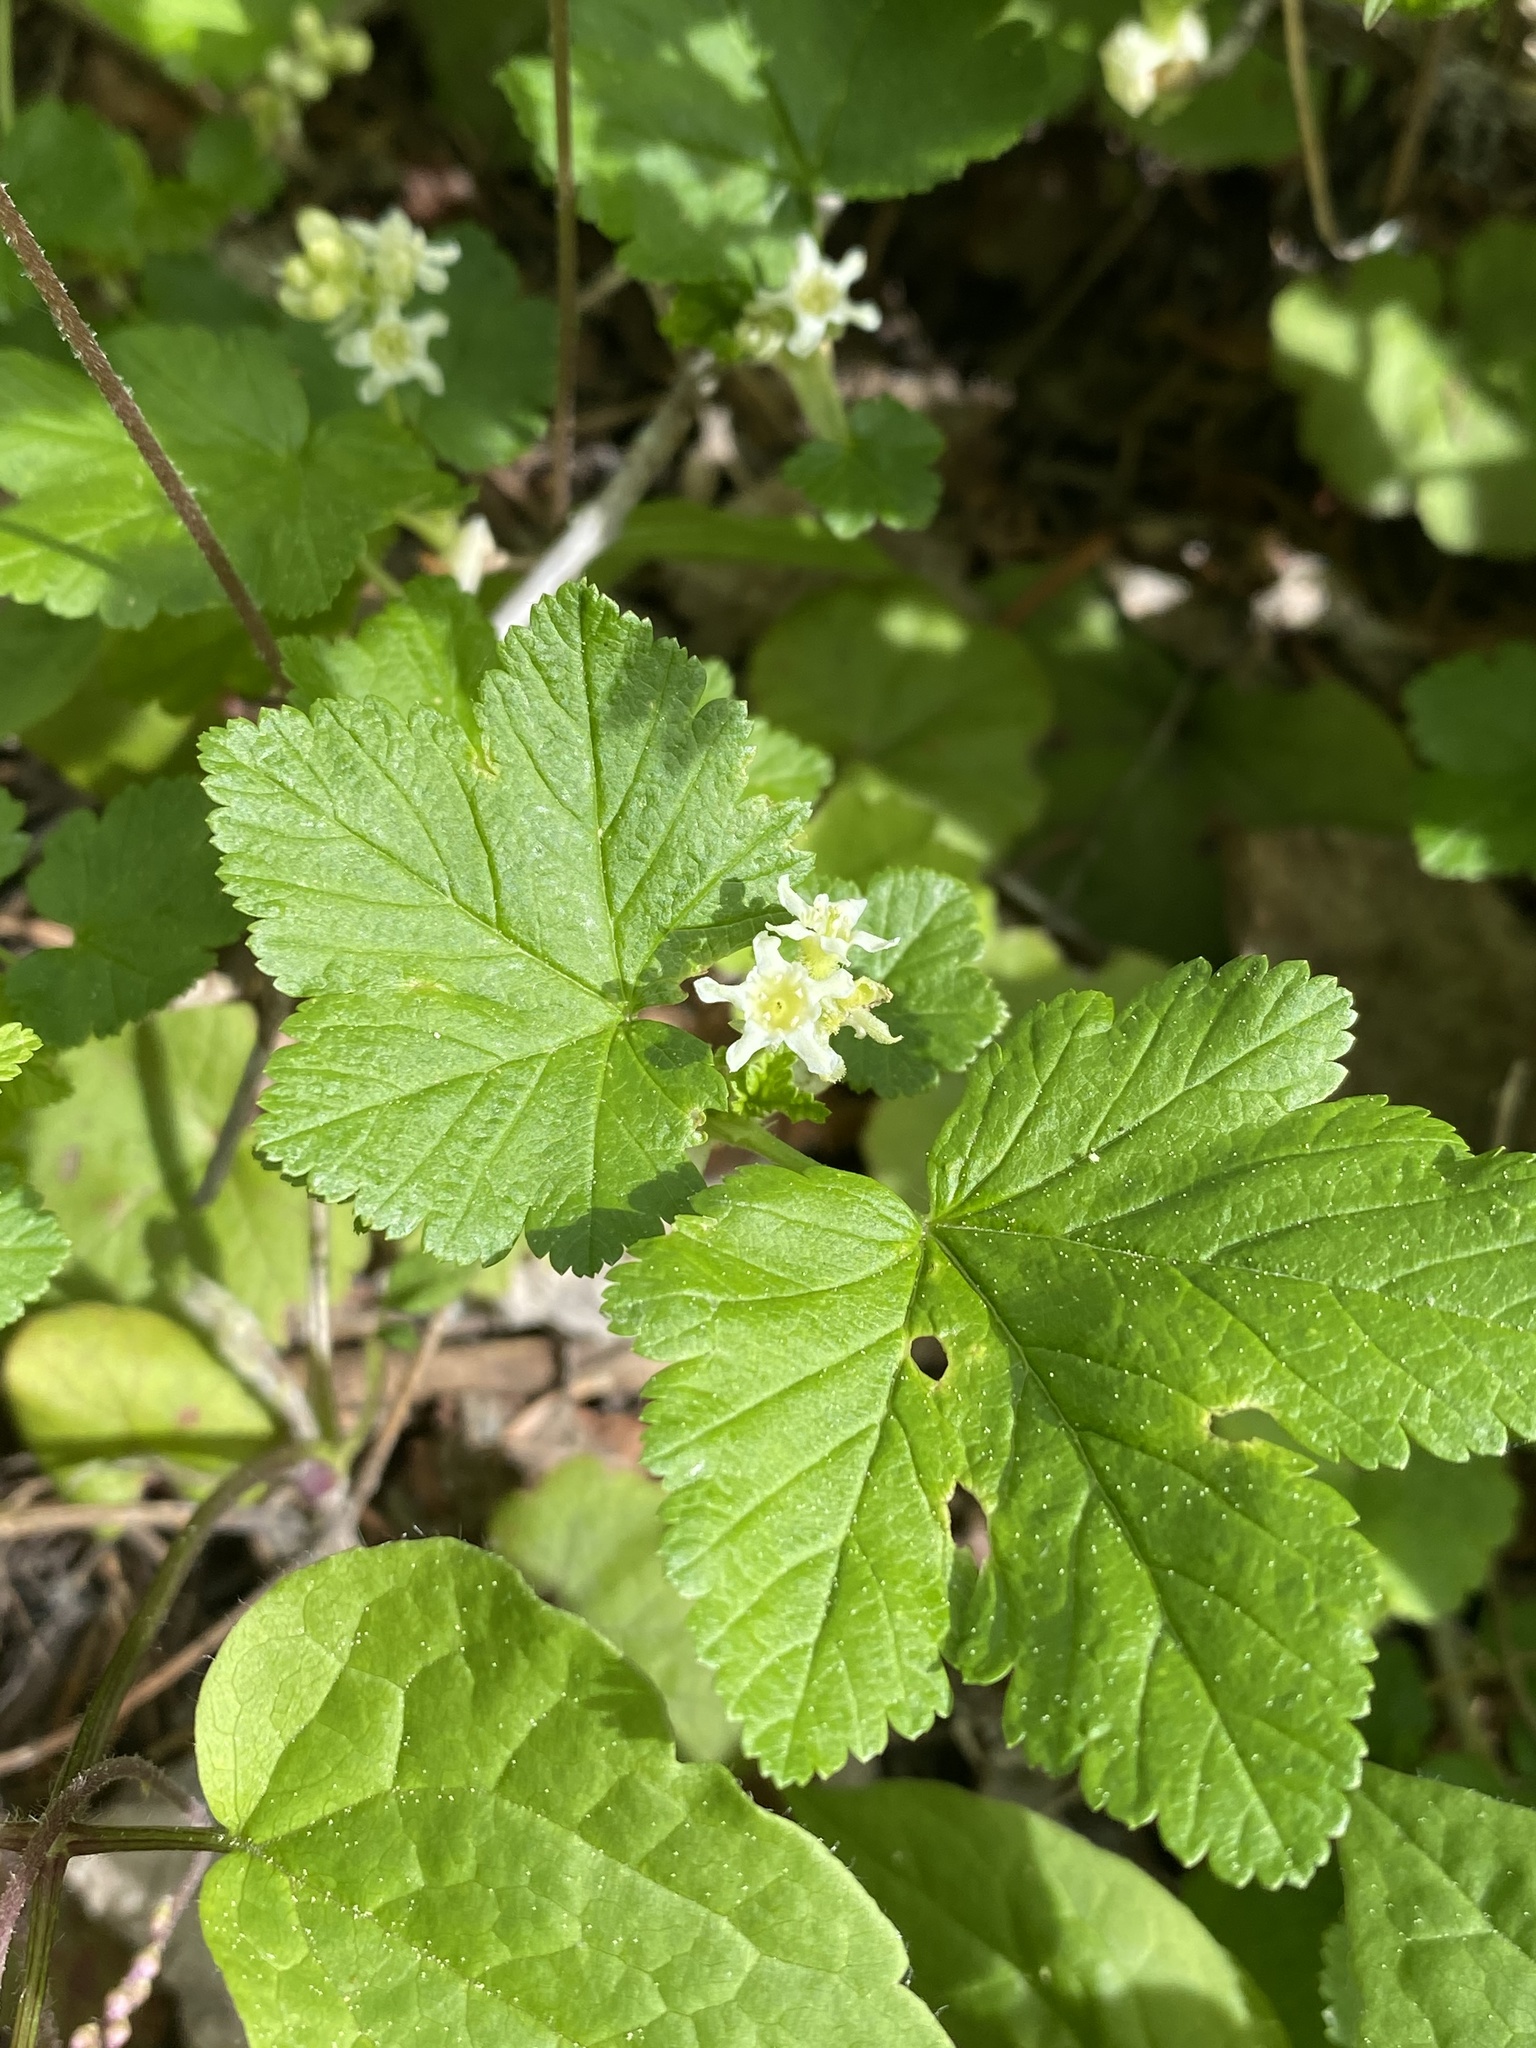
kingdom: Plantae
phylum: Tracheophyta
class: Magnoliopsida
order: Saxifragales
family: Grossulariaceae
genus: Ribes
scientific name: Ribes wolfii
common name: Rothrock currant
